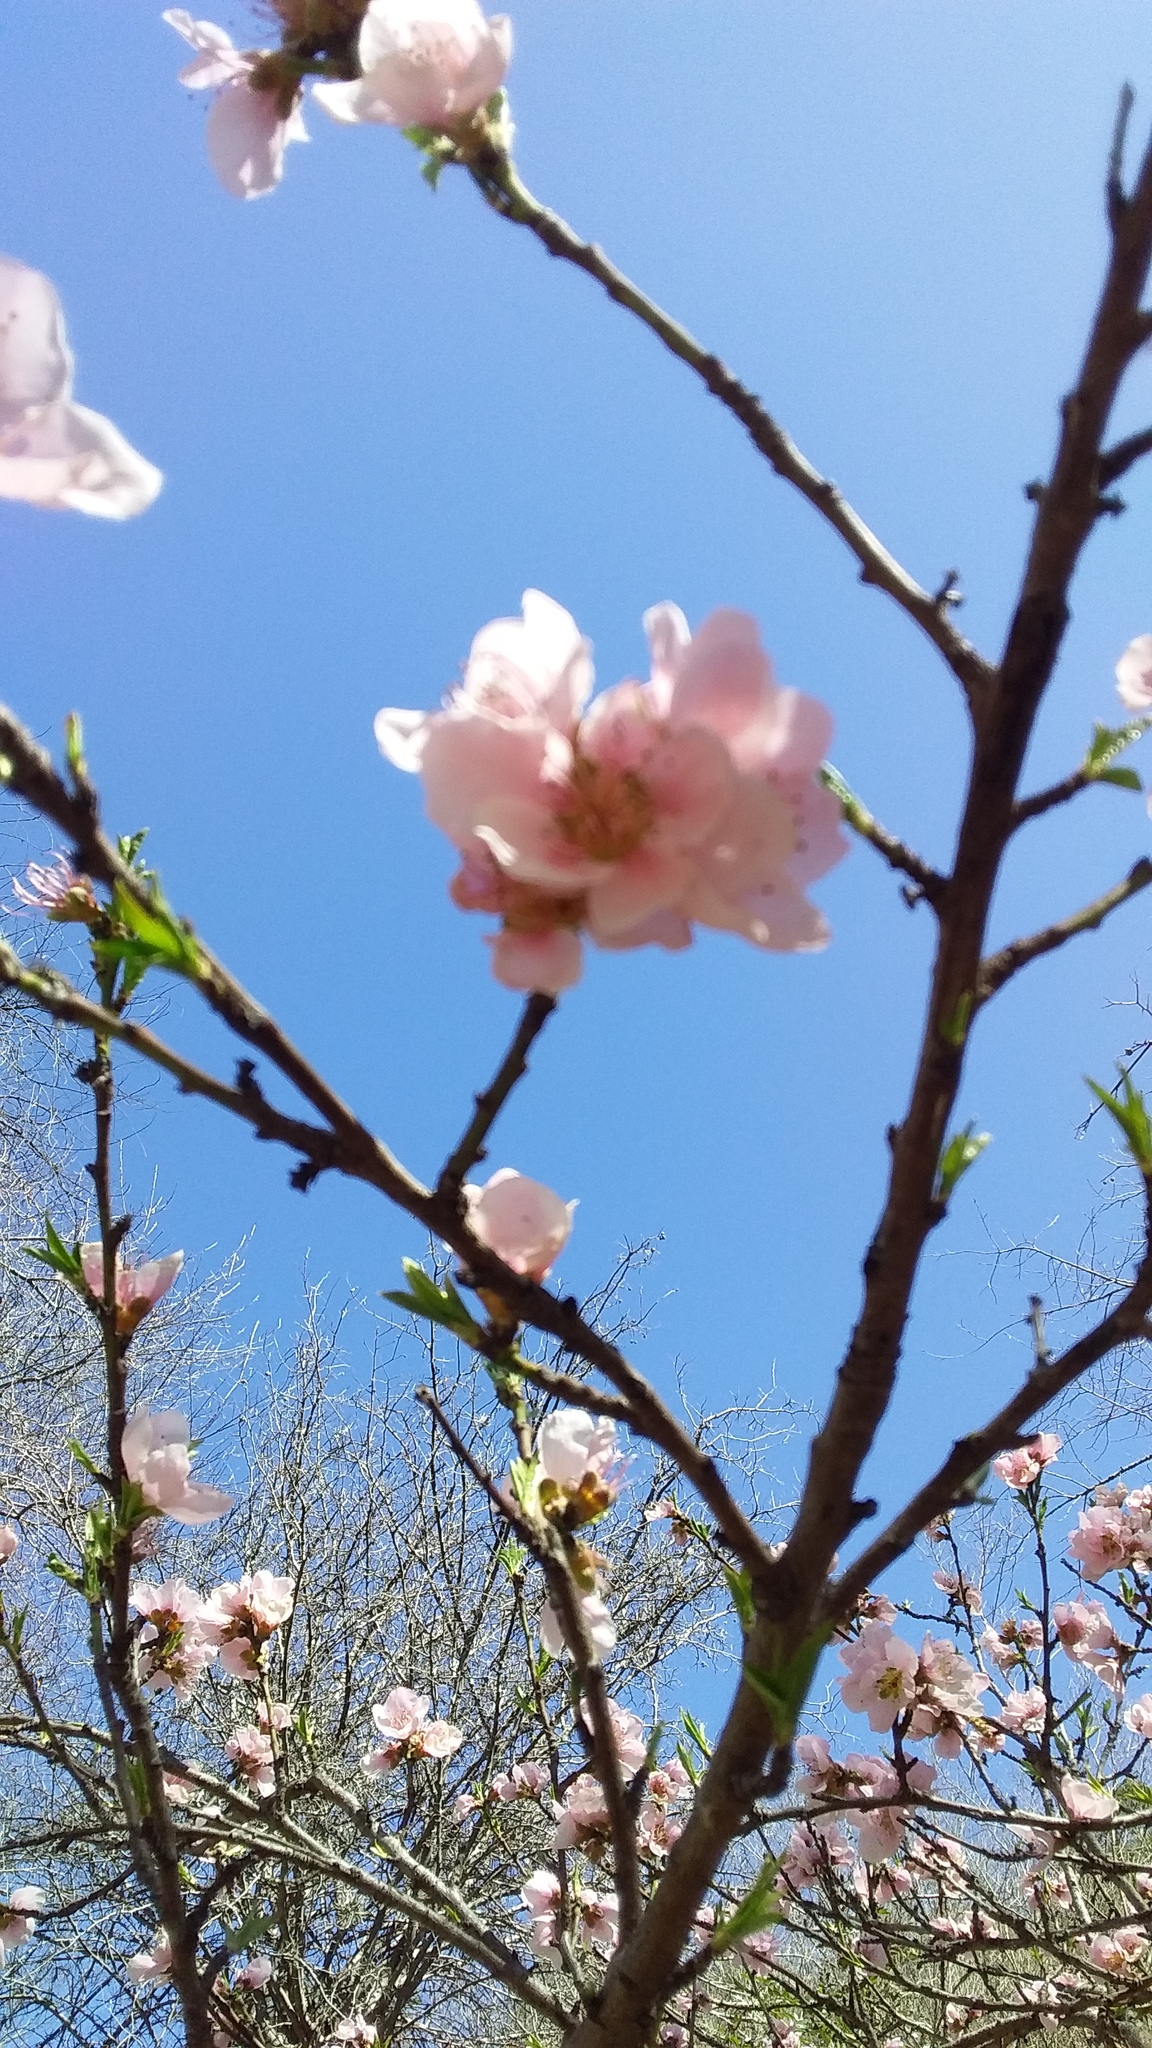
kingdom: Plantae
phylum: Tracheophyta
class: Magnoliopsida
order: Rosales
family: Rosaceae
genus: Prunus
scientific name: Prunus persica
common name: Peach
